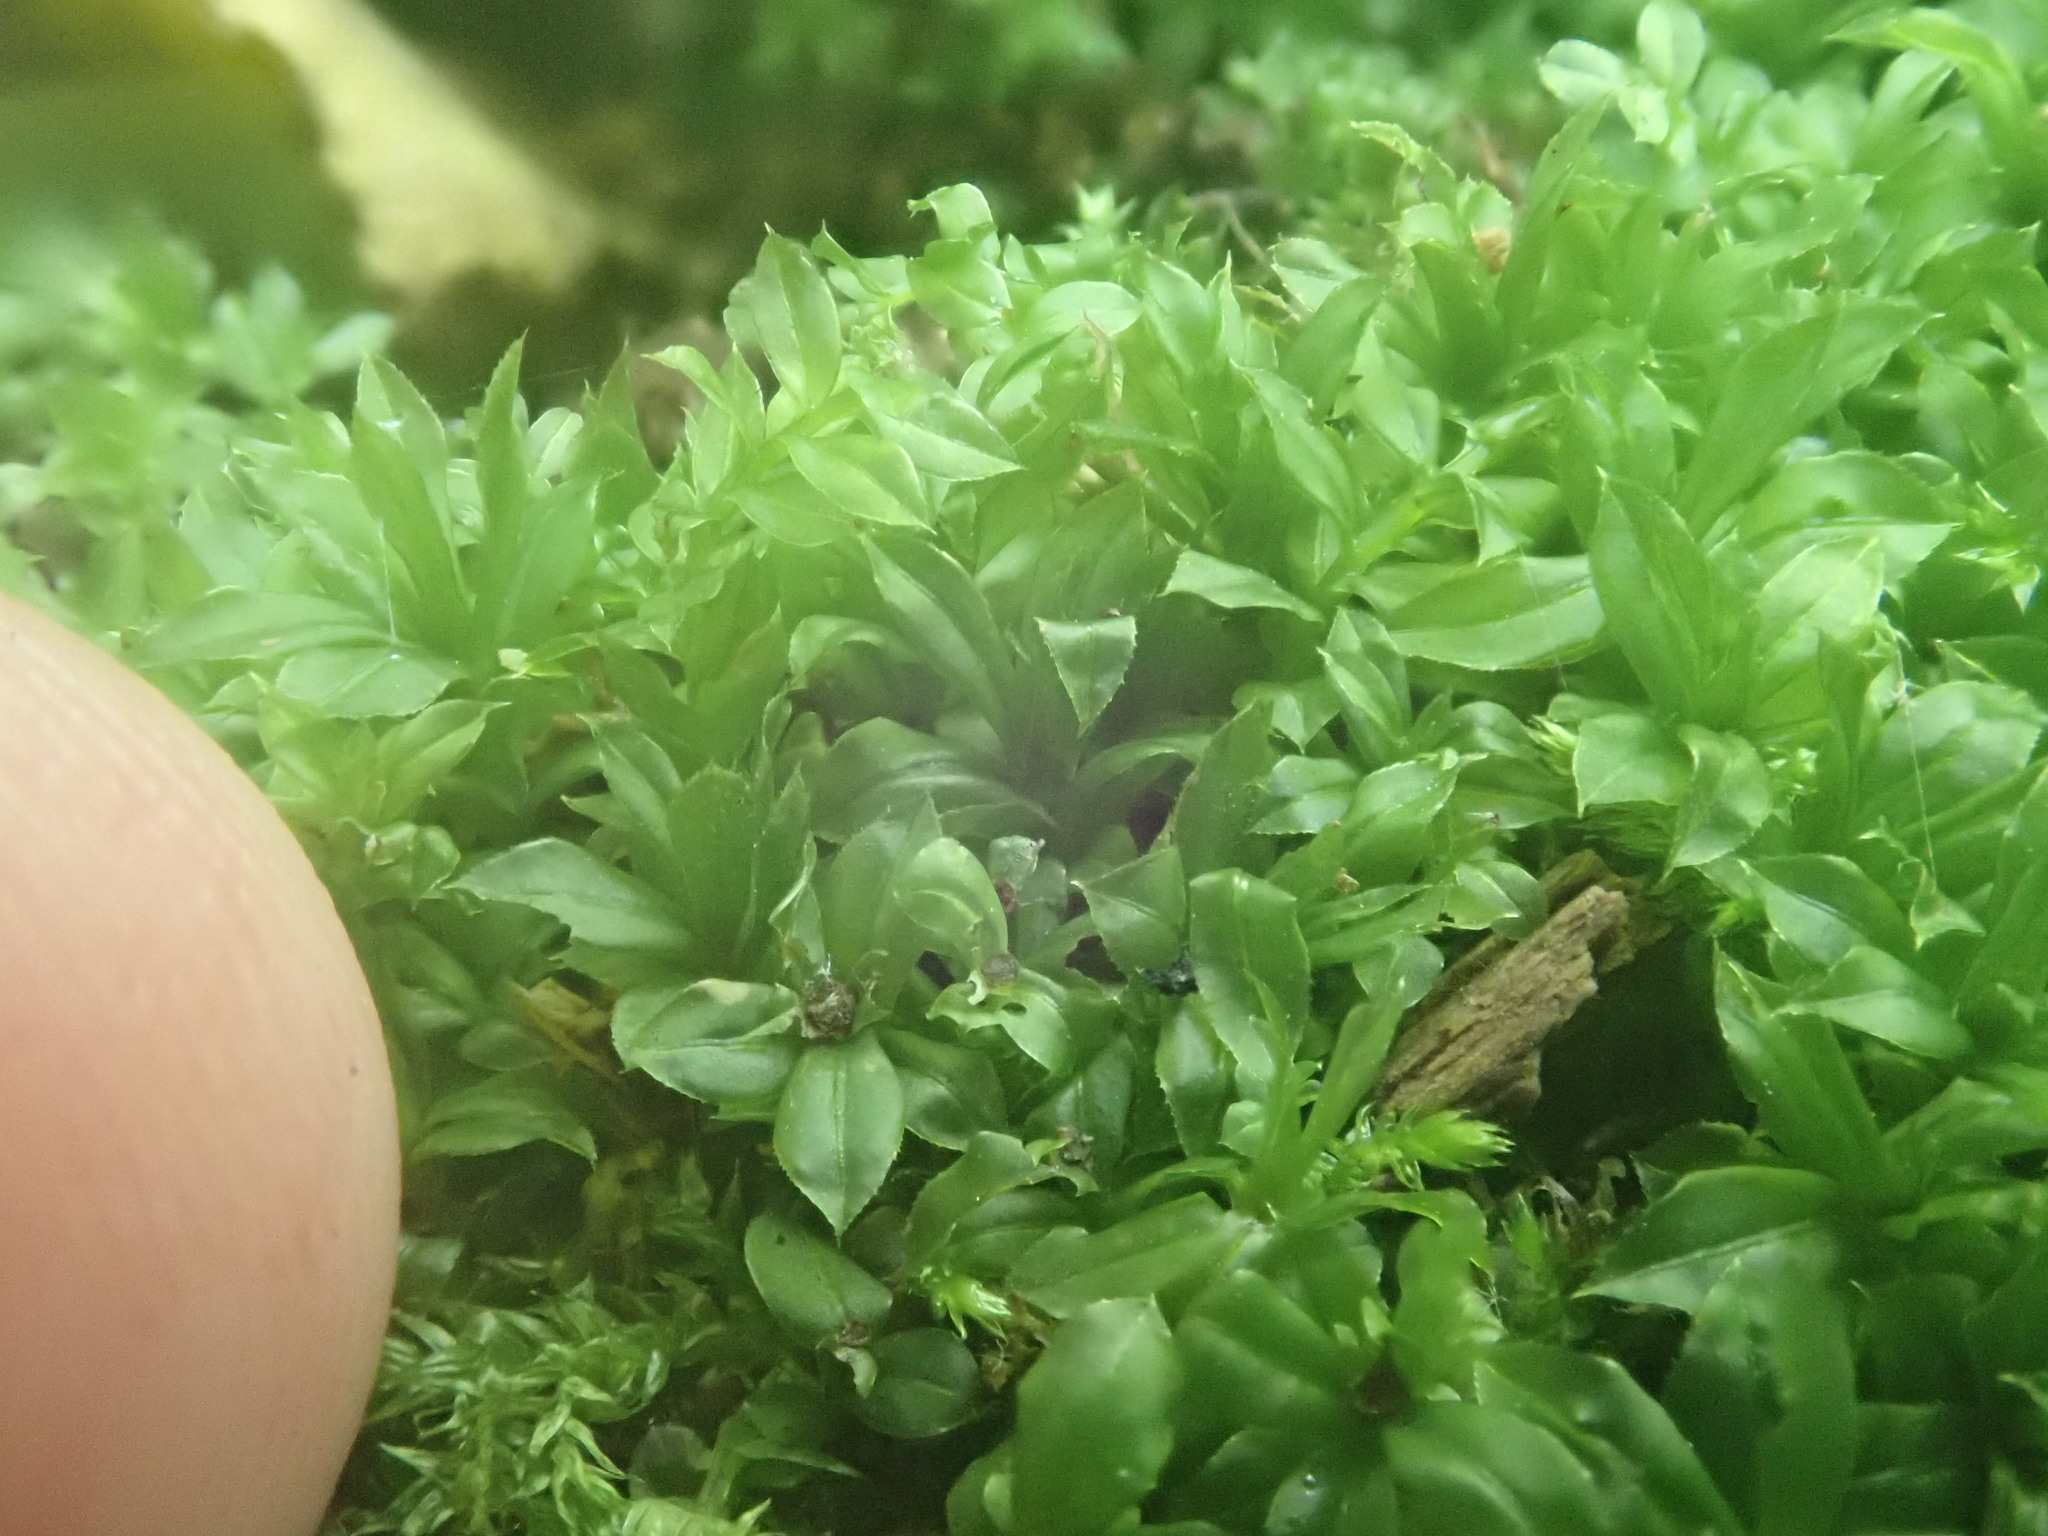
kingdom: Plantae
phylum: Bryophyta
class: Bryopsida
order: Bryales
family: Mniaceae
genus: Plagiomnium
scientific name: Plagiomnium cuspidatum
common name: Woodsy leafy moss
